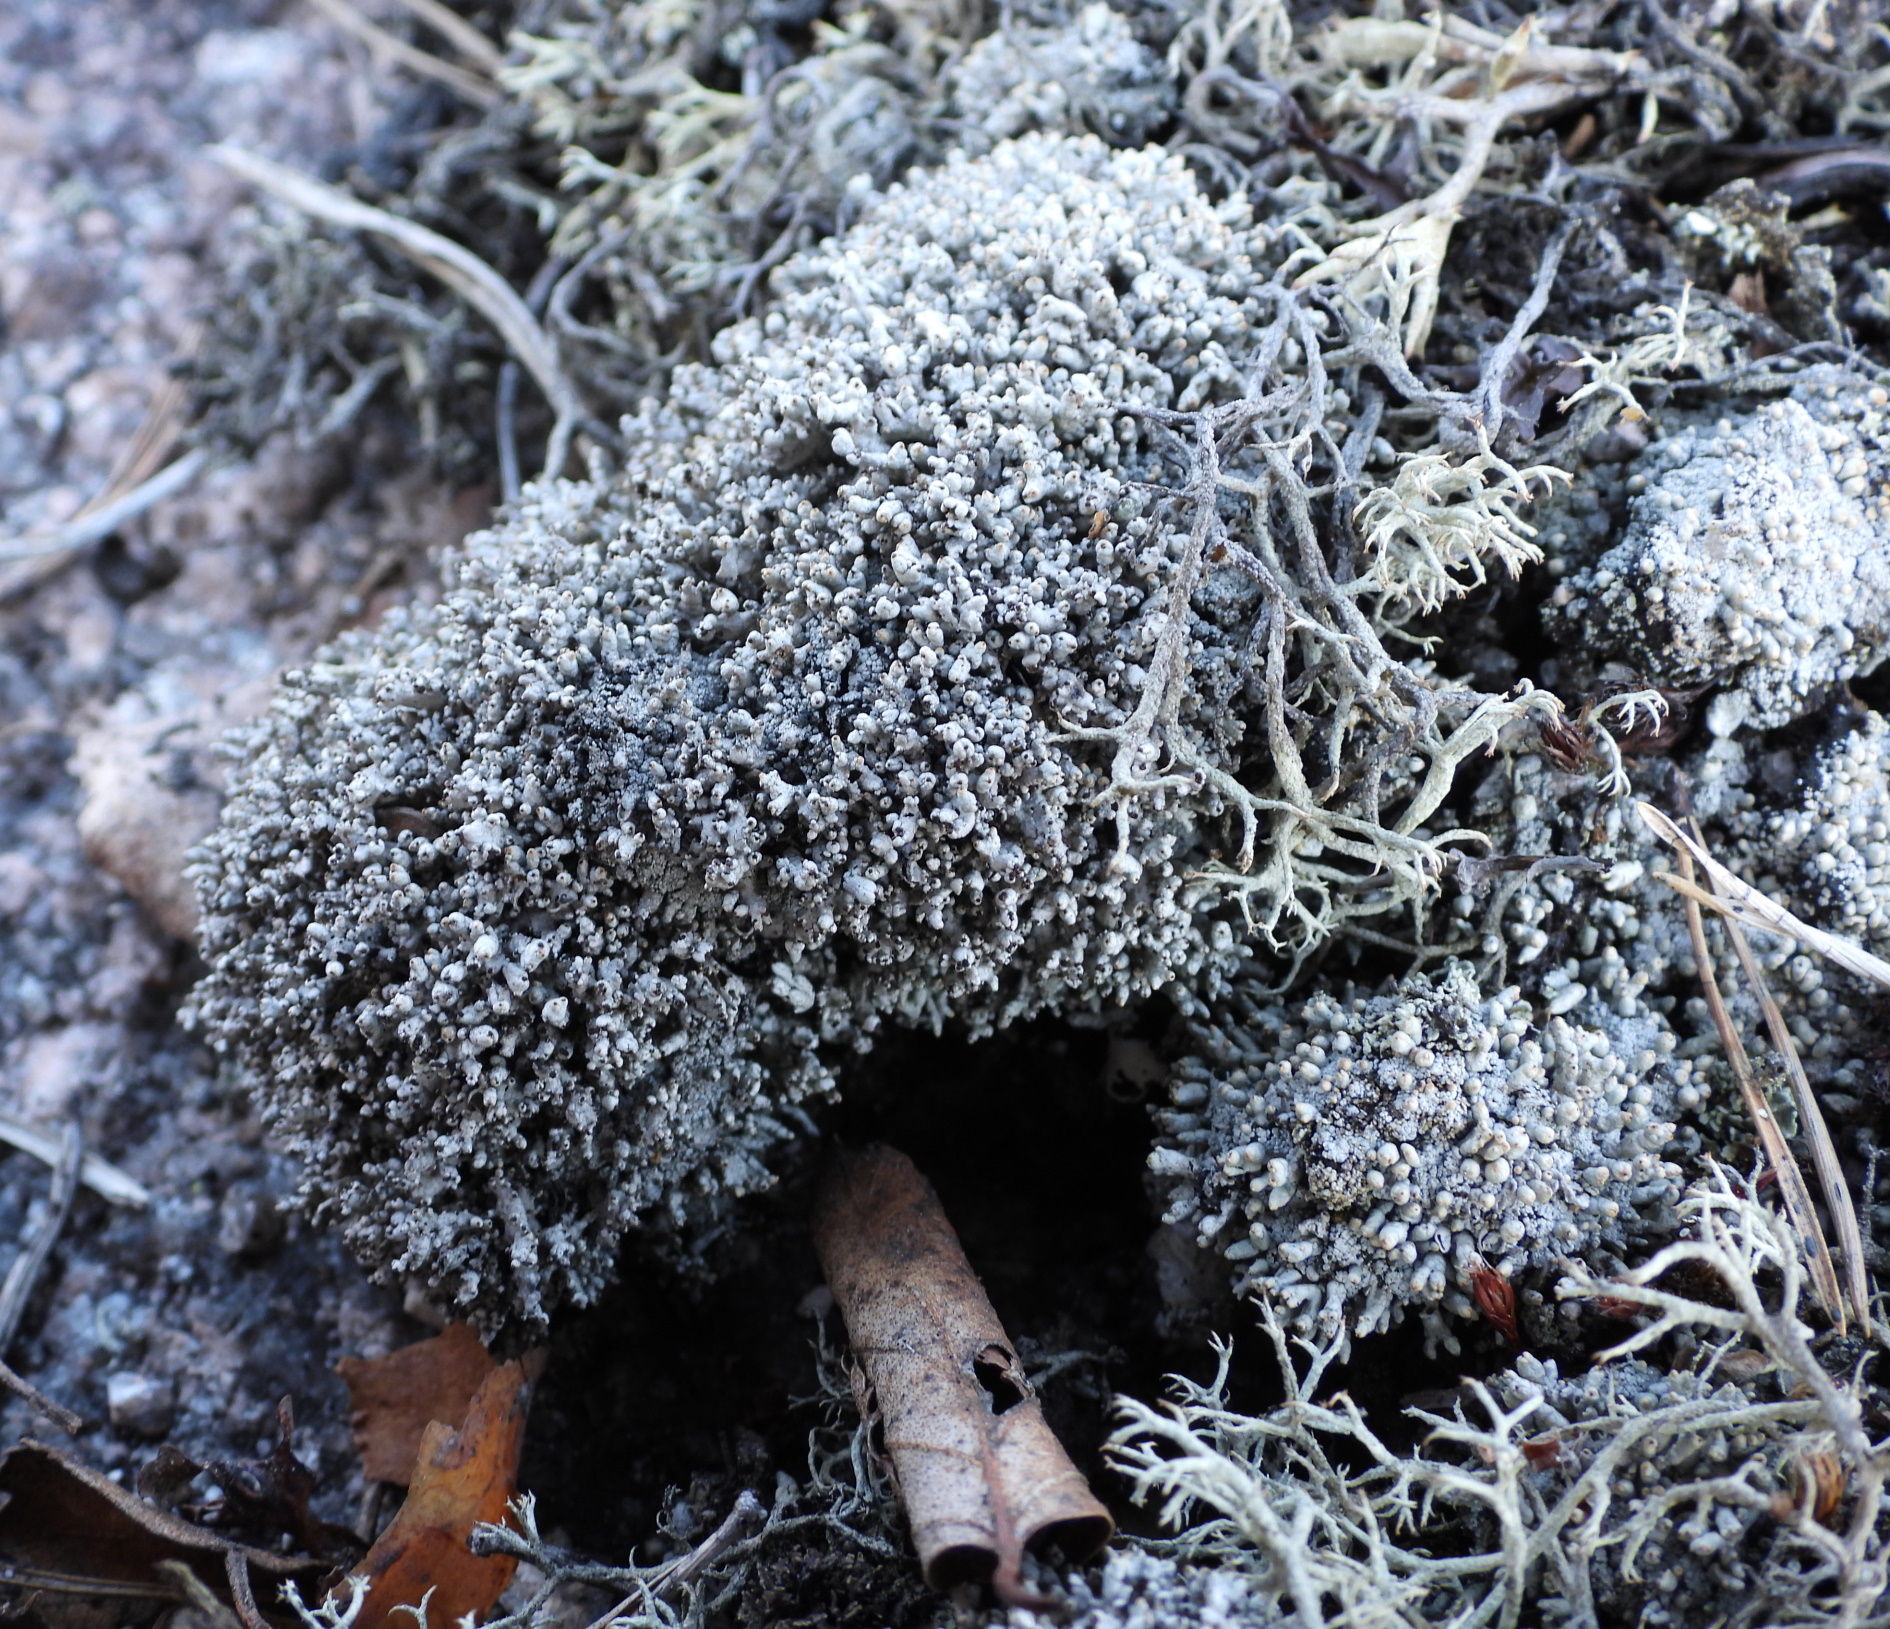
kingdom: Fungi
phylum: Ascomycota
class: Lecanoromycetes
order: Lecanorales
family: Cladoniaceae
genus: Pycnothelia
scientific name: Pycnothelia papillaria
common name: Nipple lichen
